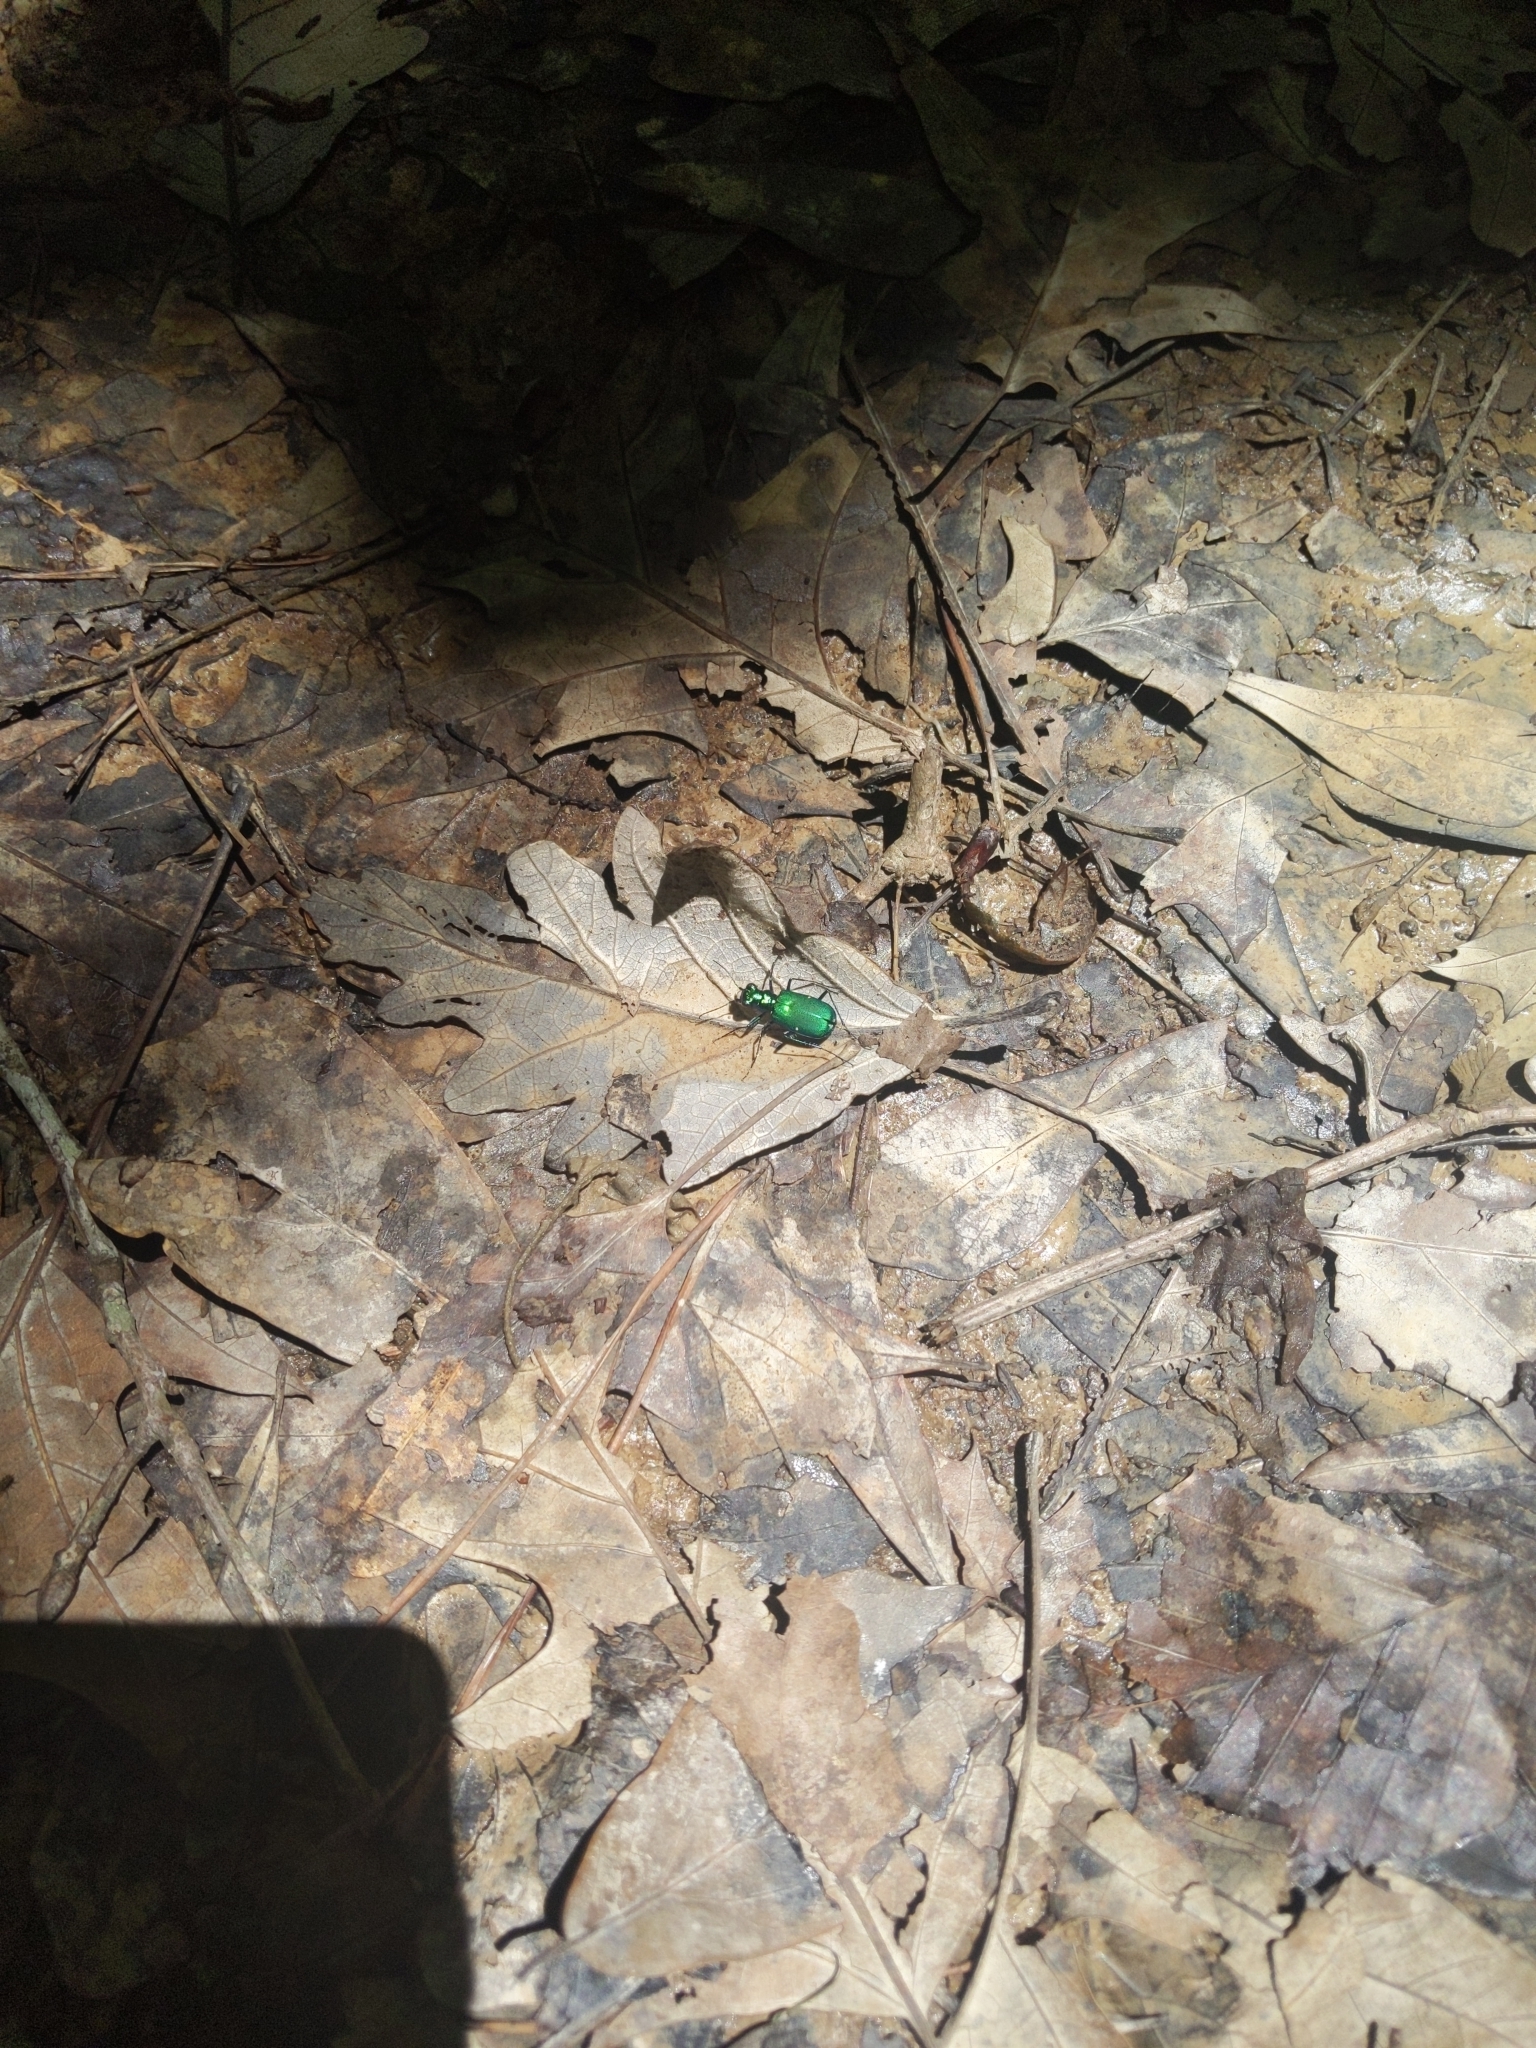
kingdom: Animalia
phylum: Arthropoda
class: Insecta
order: Coleoptera
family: Carabidae
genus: Cicindela
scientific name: Cicindela sexguttata
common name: Six-spotted tiger beetle
